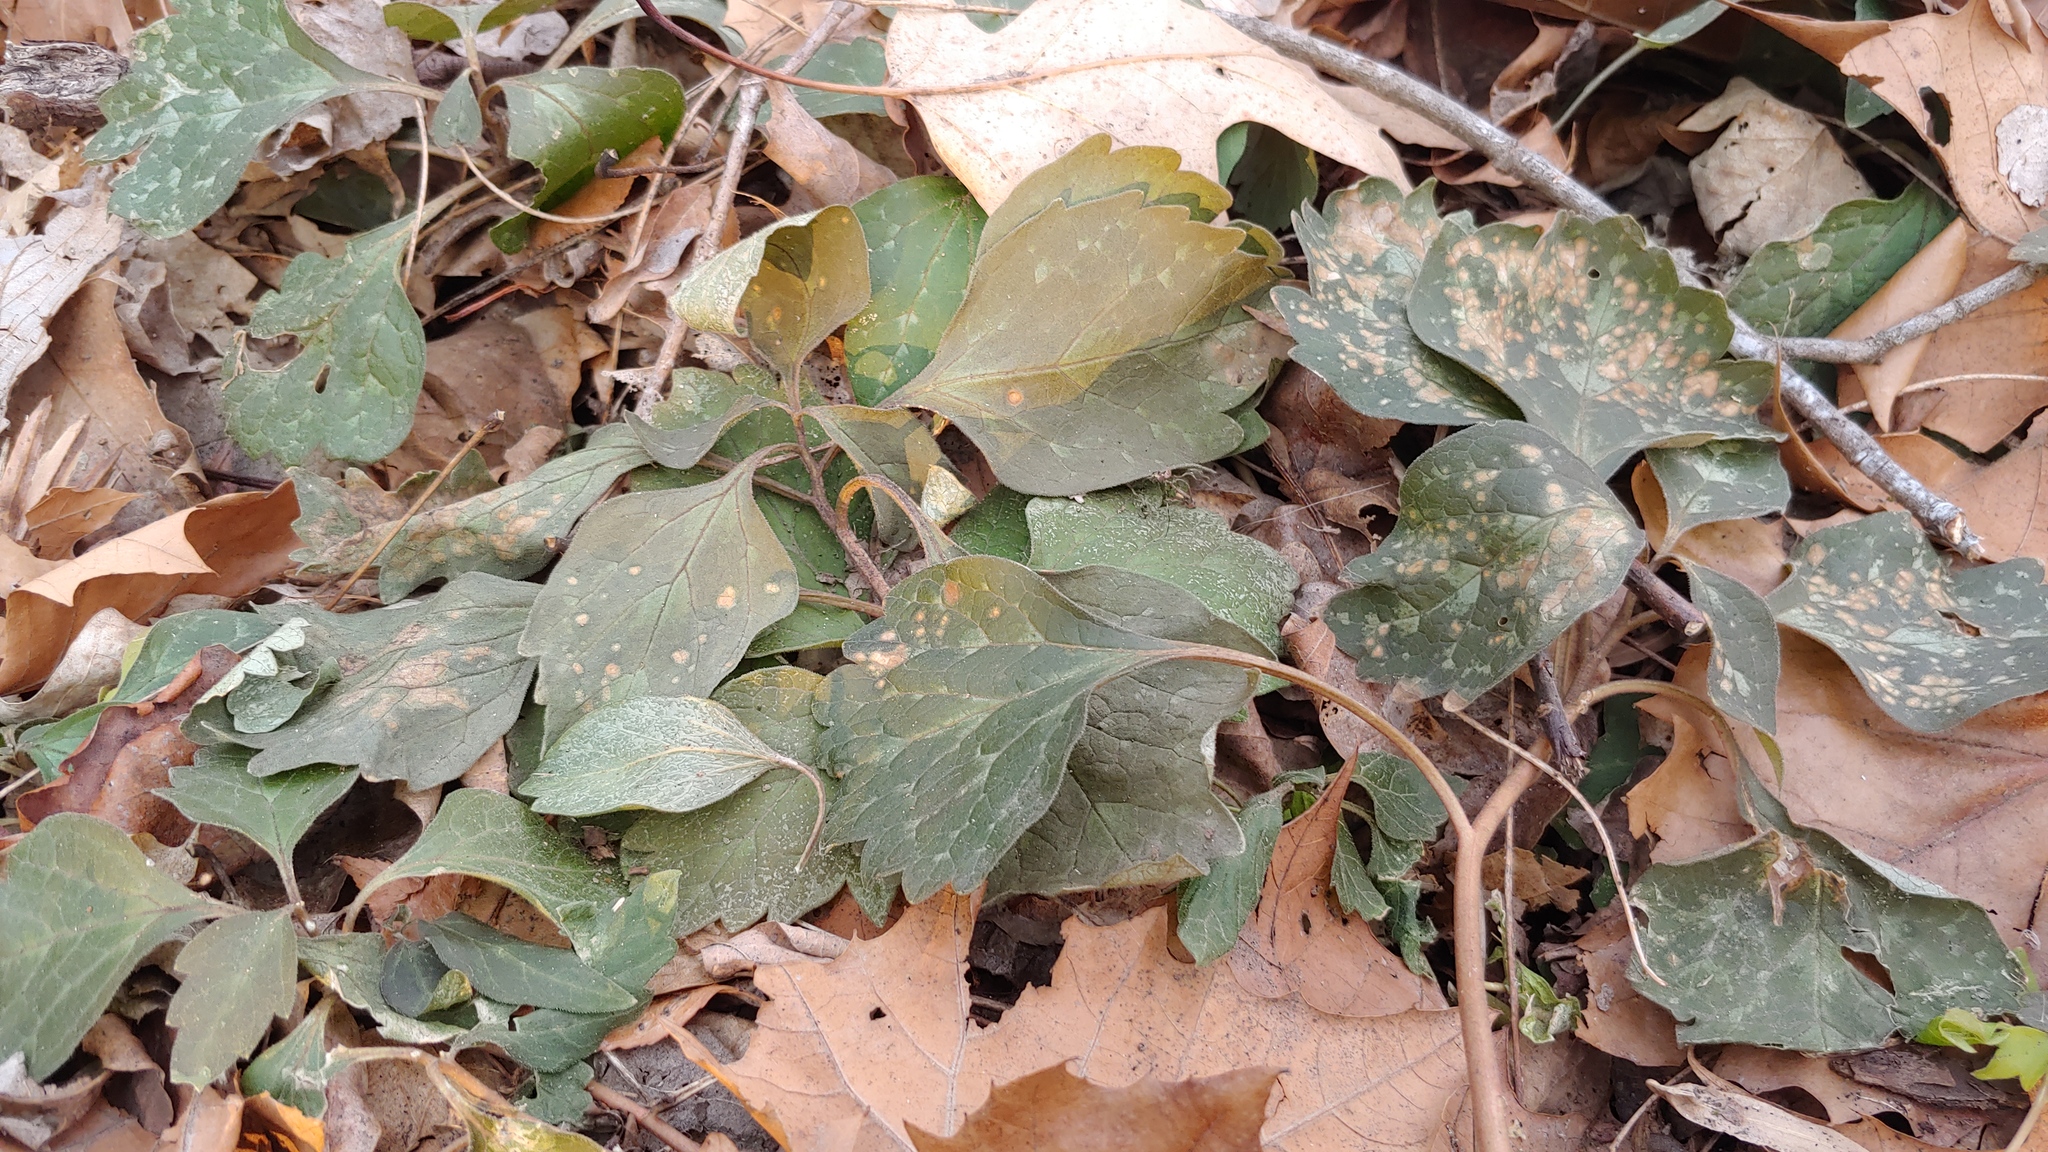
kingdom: Plantae
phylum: Tracheophyta
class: Magnoliopsida
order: Buxales
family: Buxaceae
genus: Pachysandra
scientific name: Pachysandra procumbens
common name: Mountain-spurge
